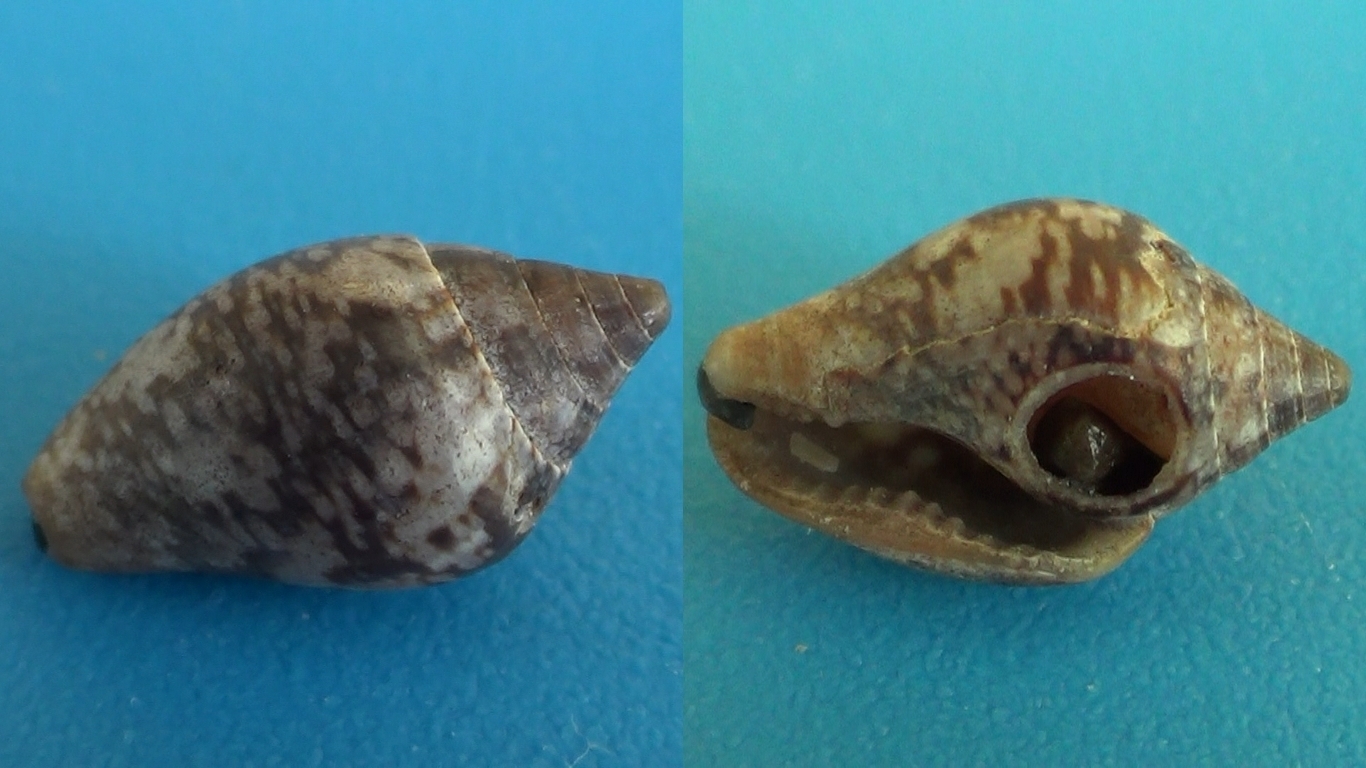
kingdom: Animalia
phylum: Mollusca
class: Gastropoda
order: Neogastropoda
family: Columbellidae
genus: Columbella
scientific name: Columbella rustica
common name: Rustic dove shell
